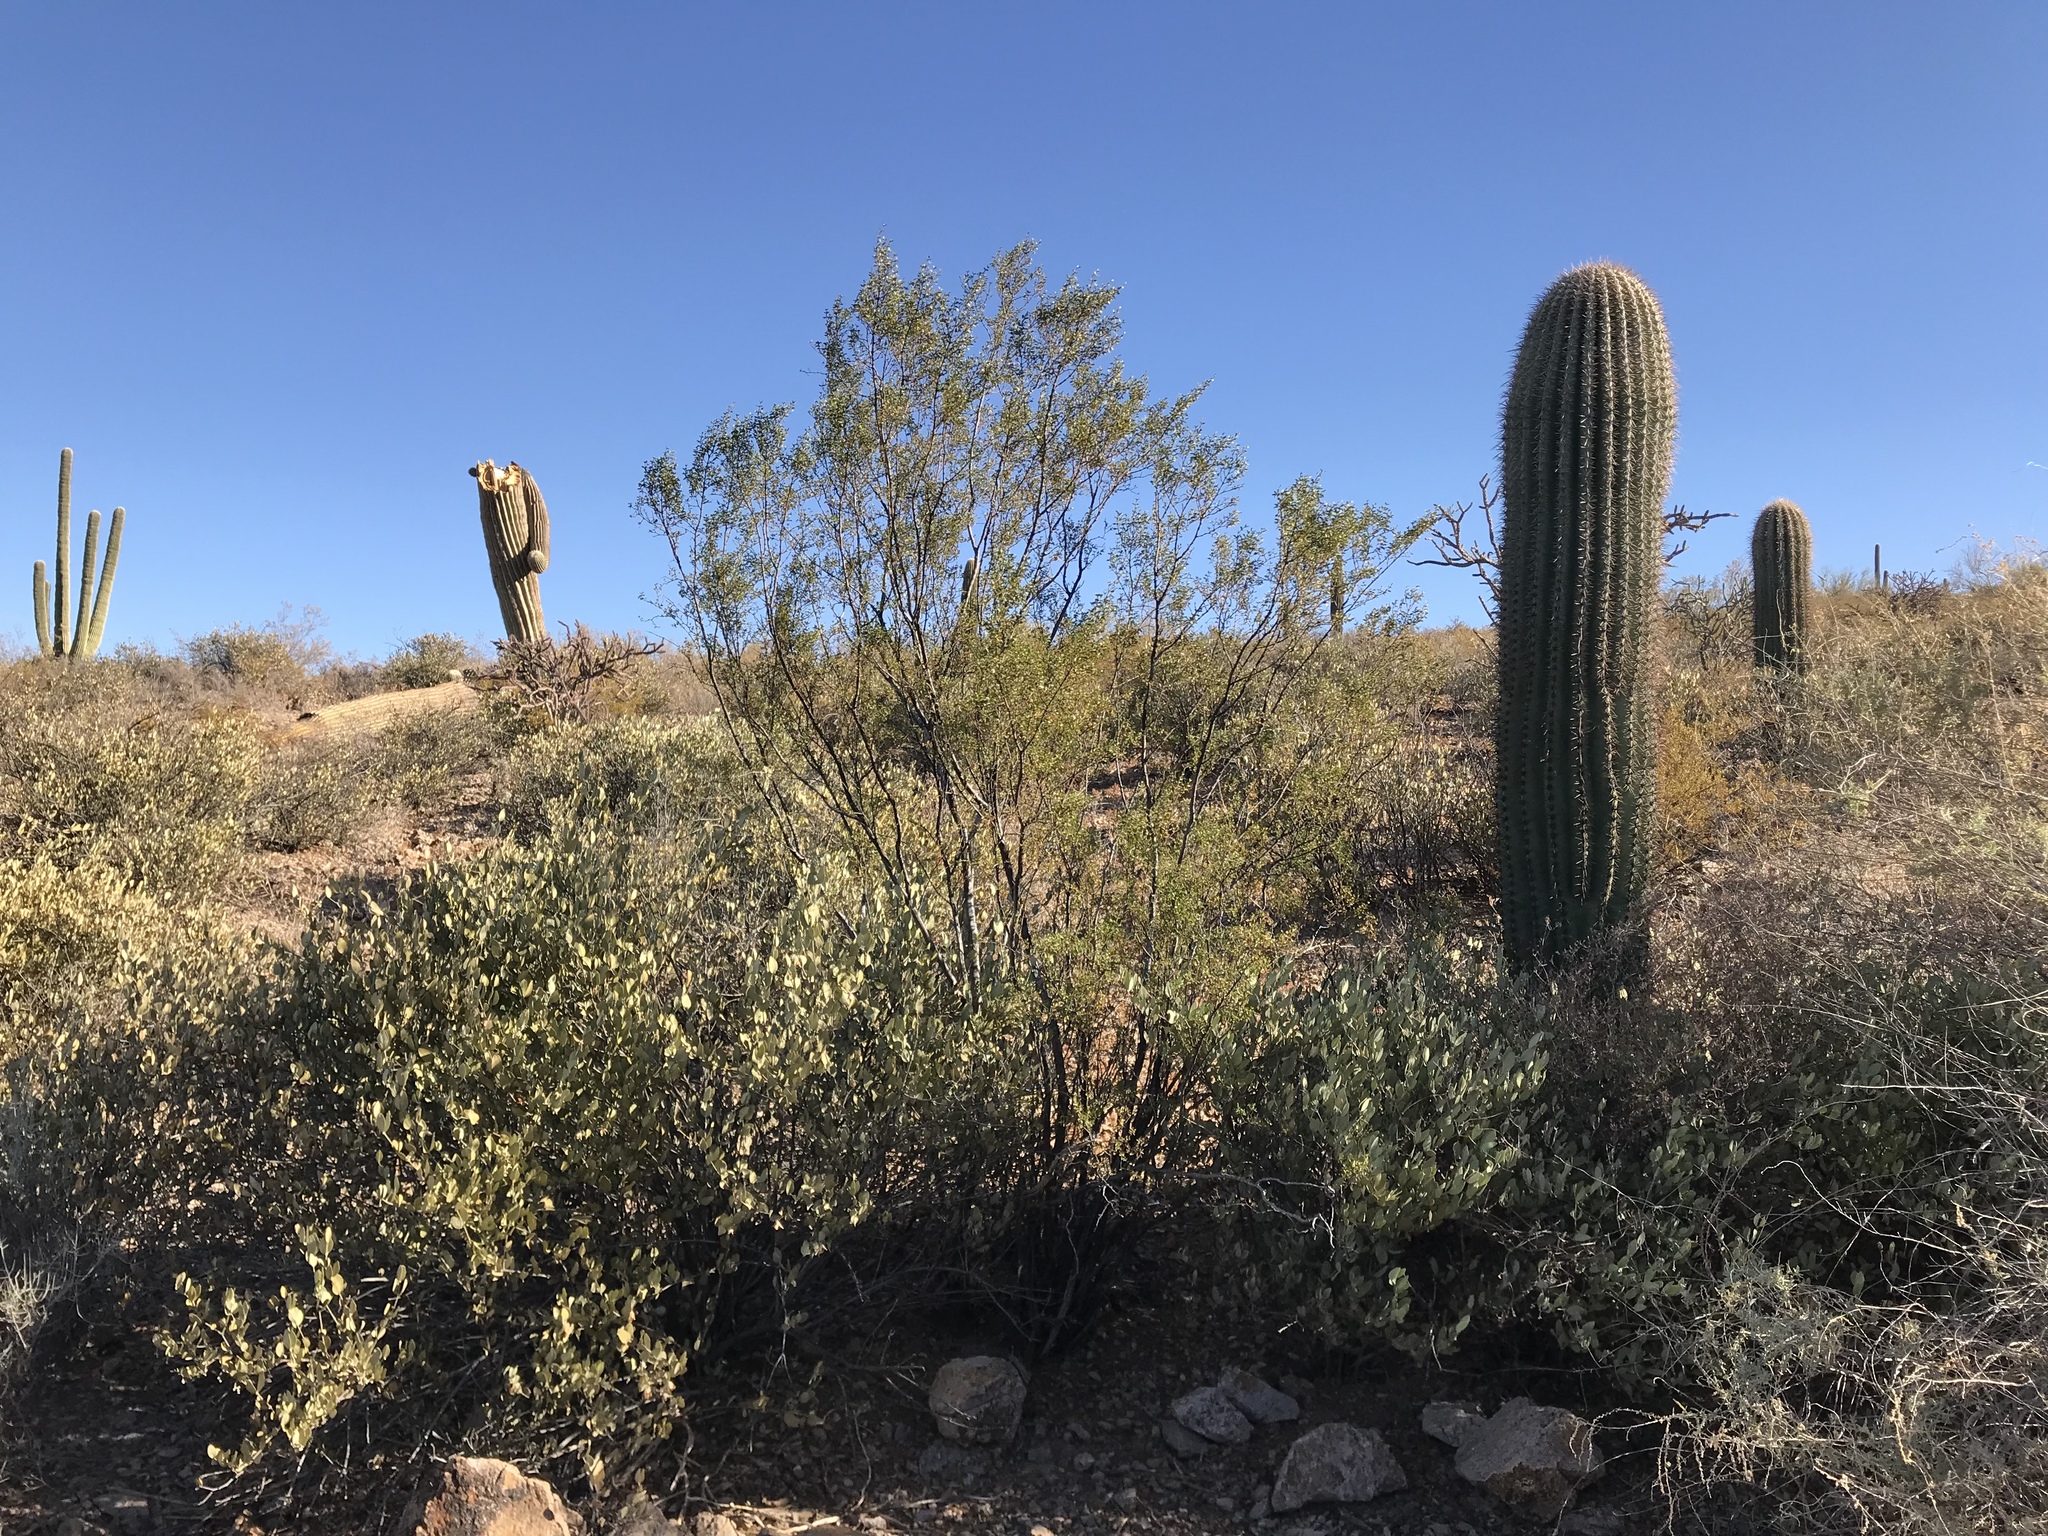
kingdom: Plantae
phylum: Tracheophyta
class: Magnoliopsida
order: Zygophyllales
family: Zygophyllaceae
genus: Larrea
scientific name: Larrea tridentata
